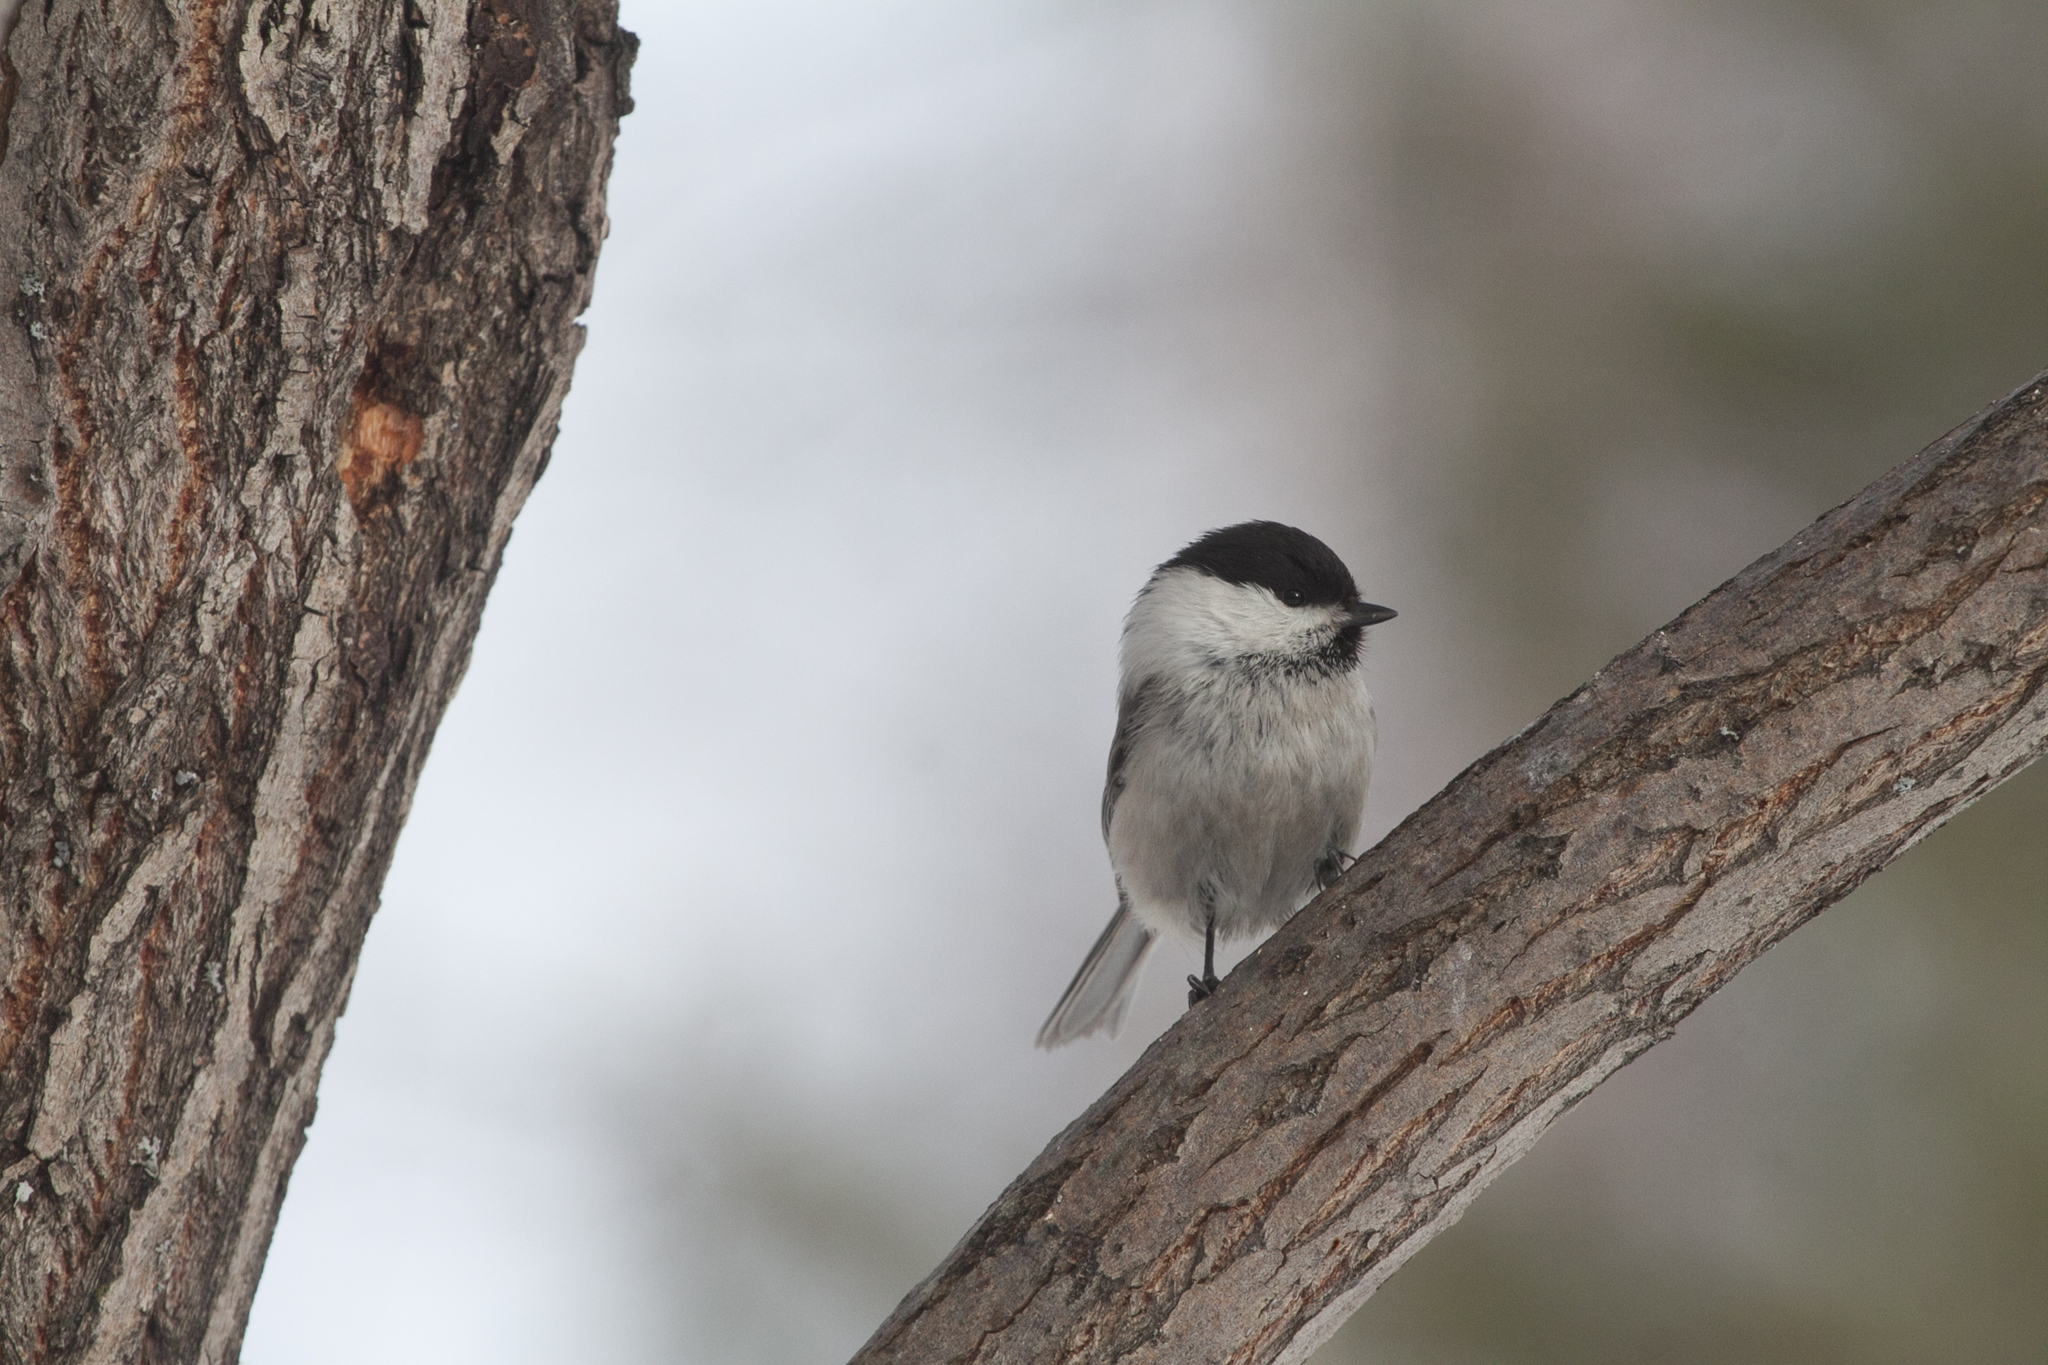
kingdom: Animalia
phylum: Chordata
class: Aves
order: Passeriformes
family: Paridae
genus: Poecile
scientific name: Poecile montanus
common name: Willow tit
